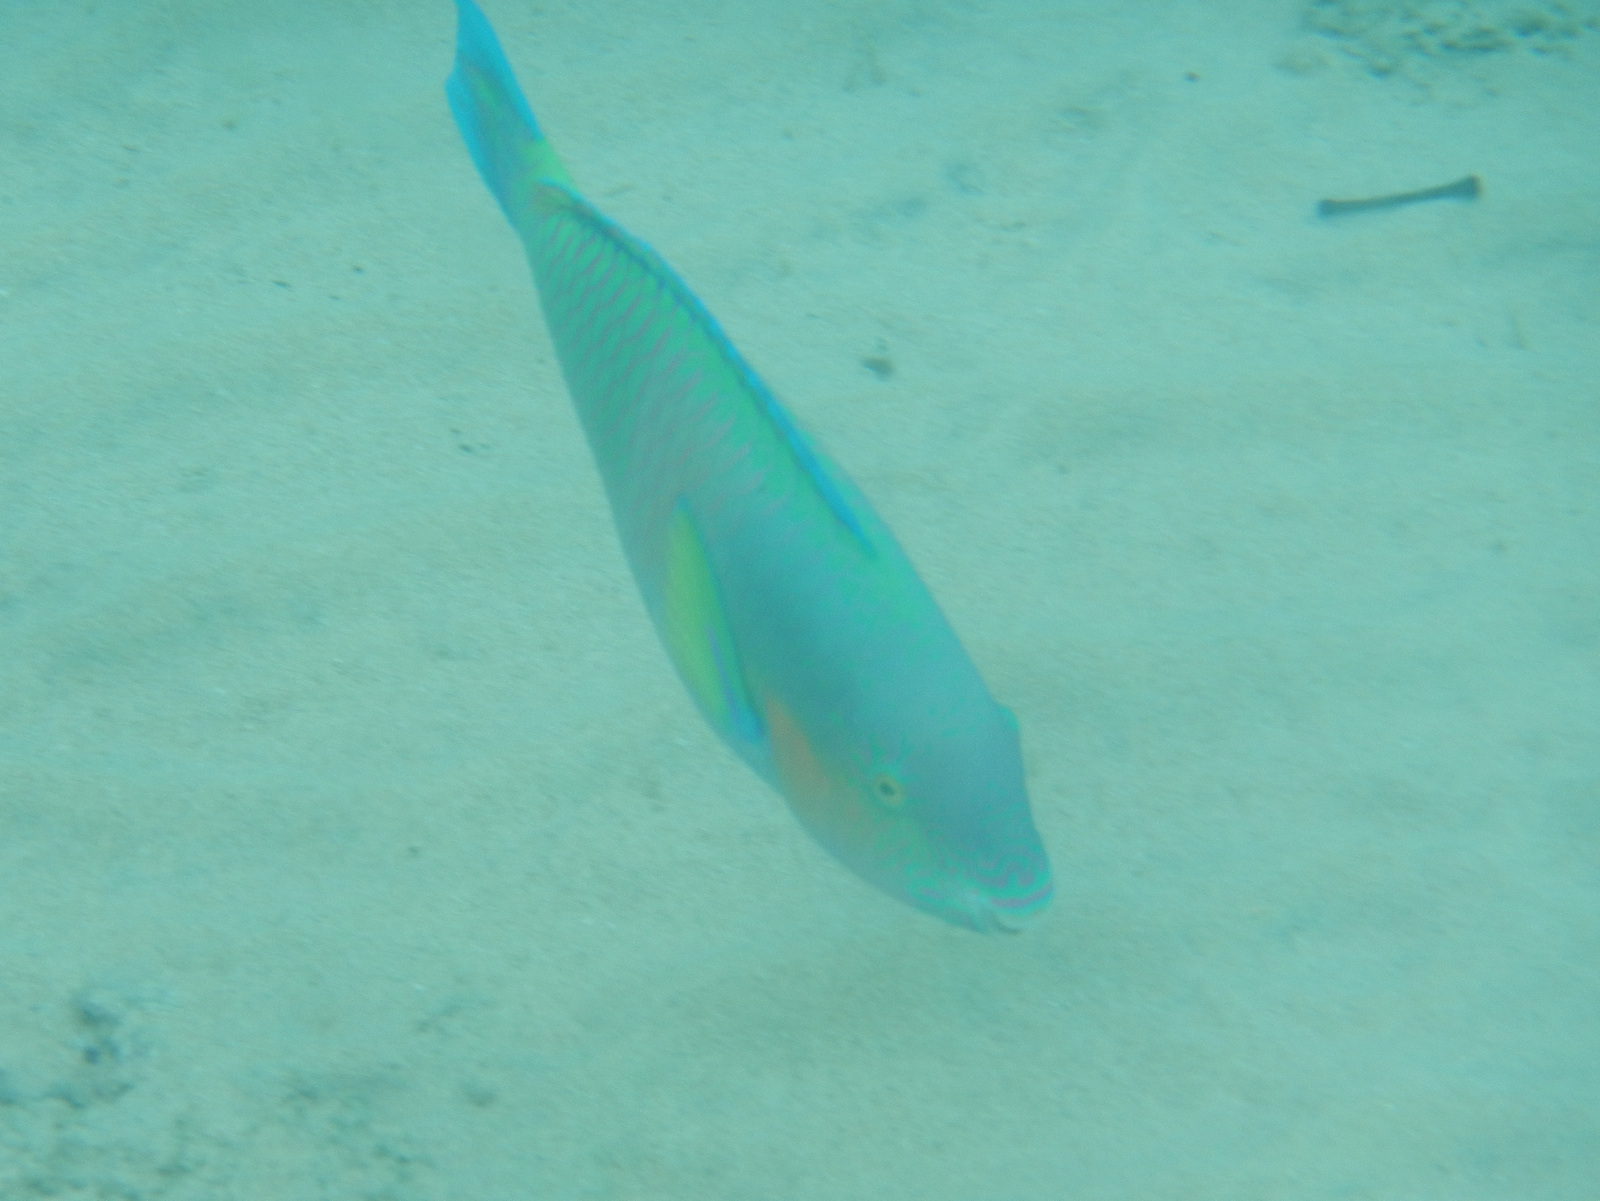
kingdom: Animalia
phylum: Chordata
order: Perciformes
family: Scaridae
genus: Scarus
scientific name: Scarus rivulatus
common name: Surf parrotfish
